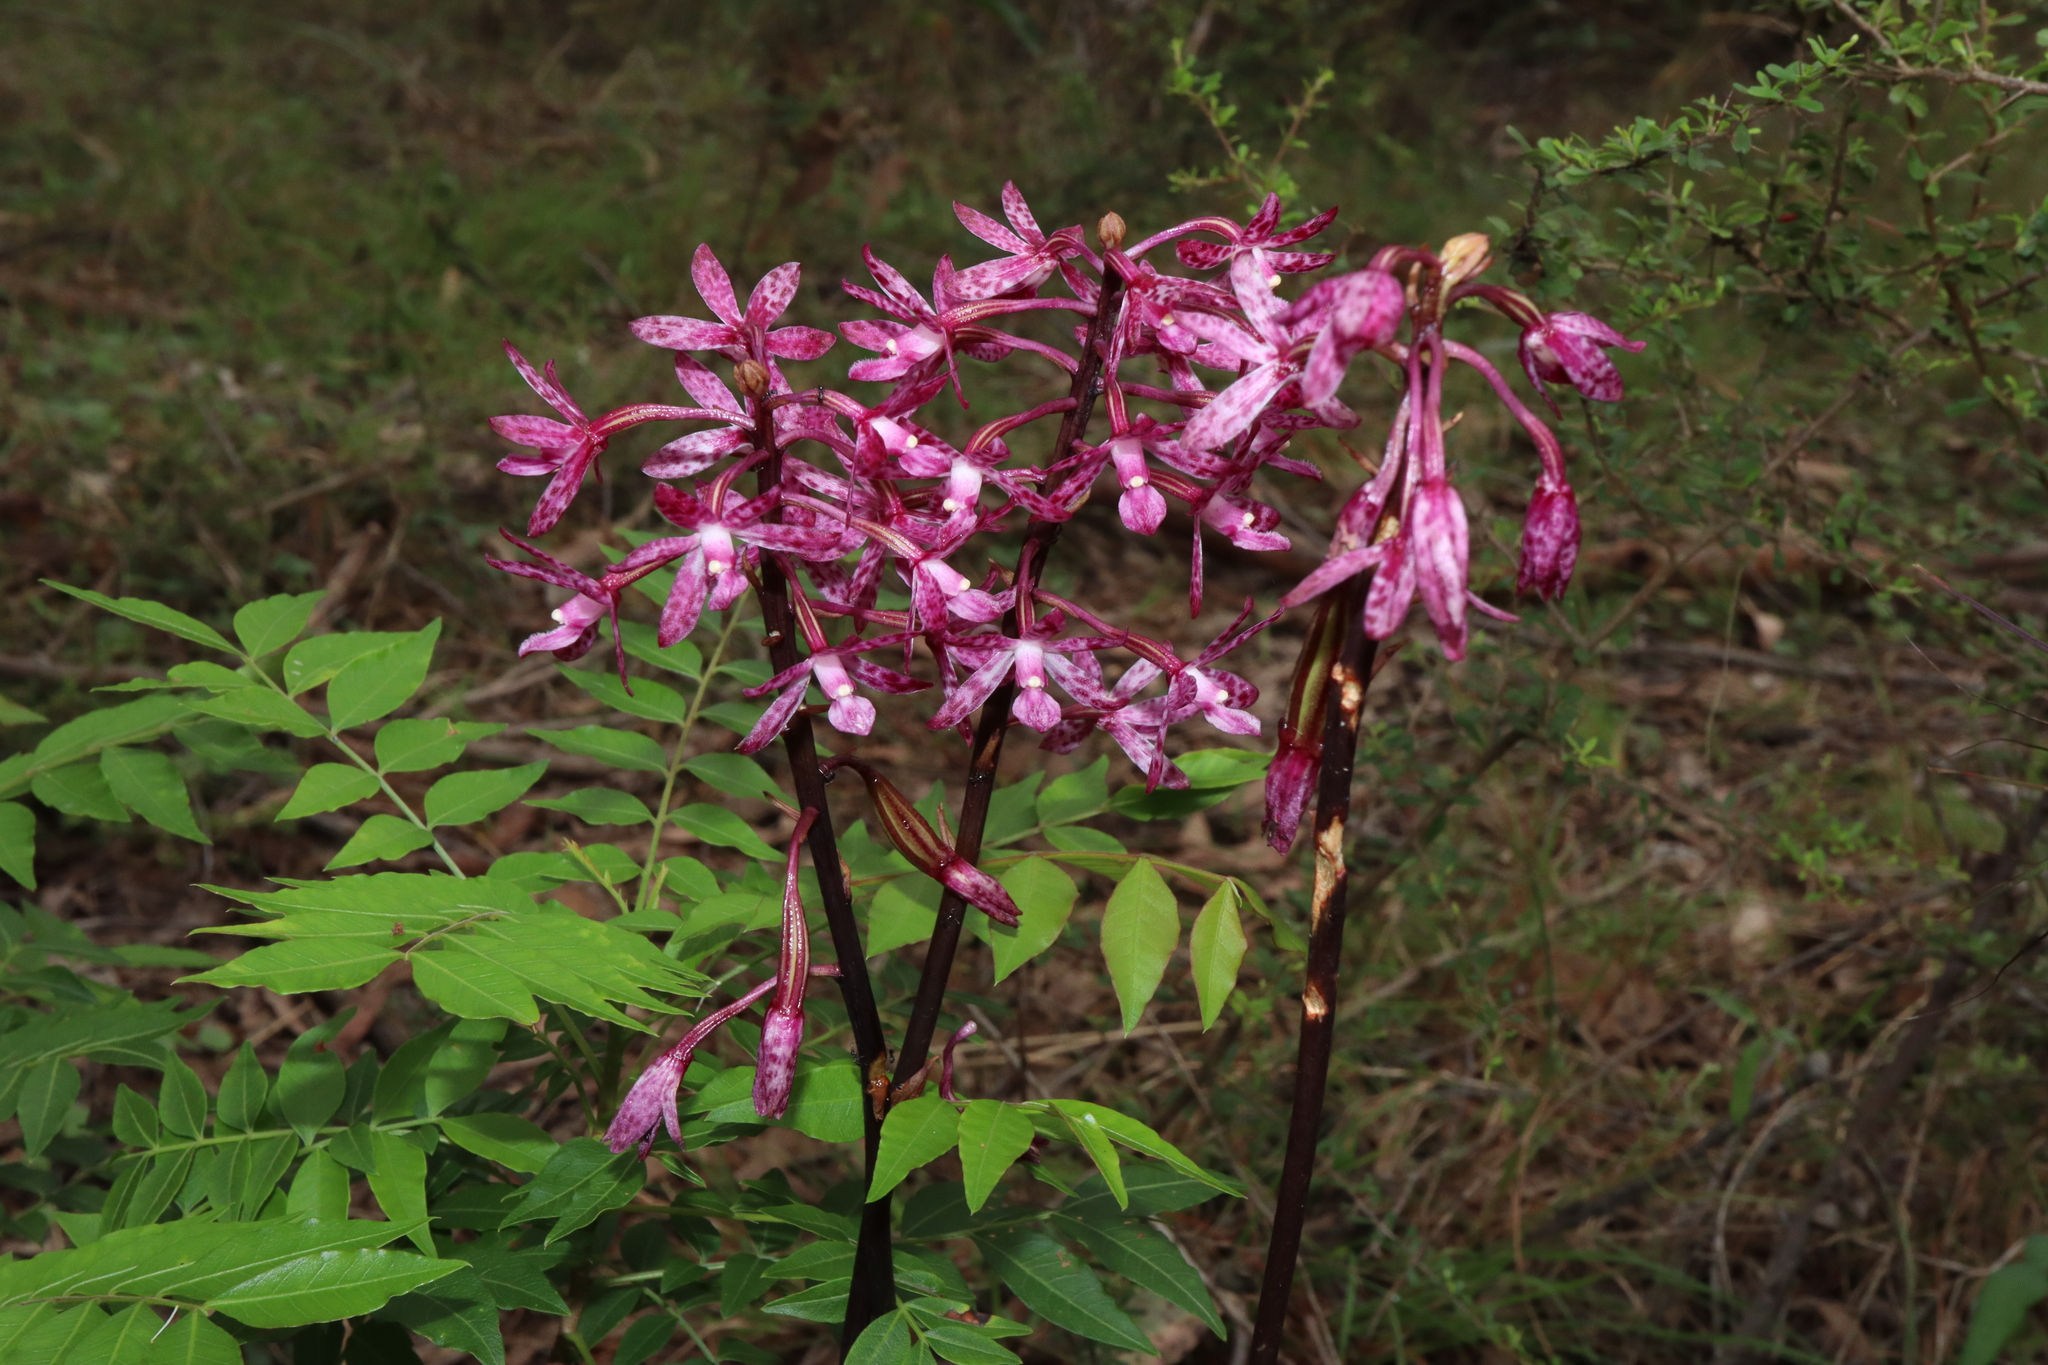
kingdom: Plantae
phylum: Tracheophyta
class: Liliopsida
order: Asparagales
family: Orchidaceae
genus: Dipodium
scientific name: Dipodium squamatum
